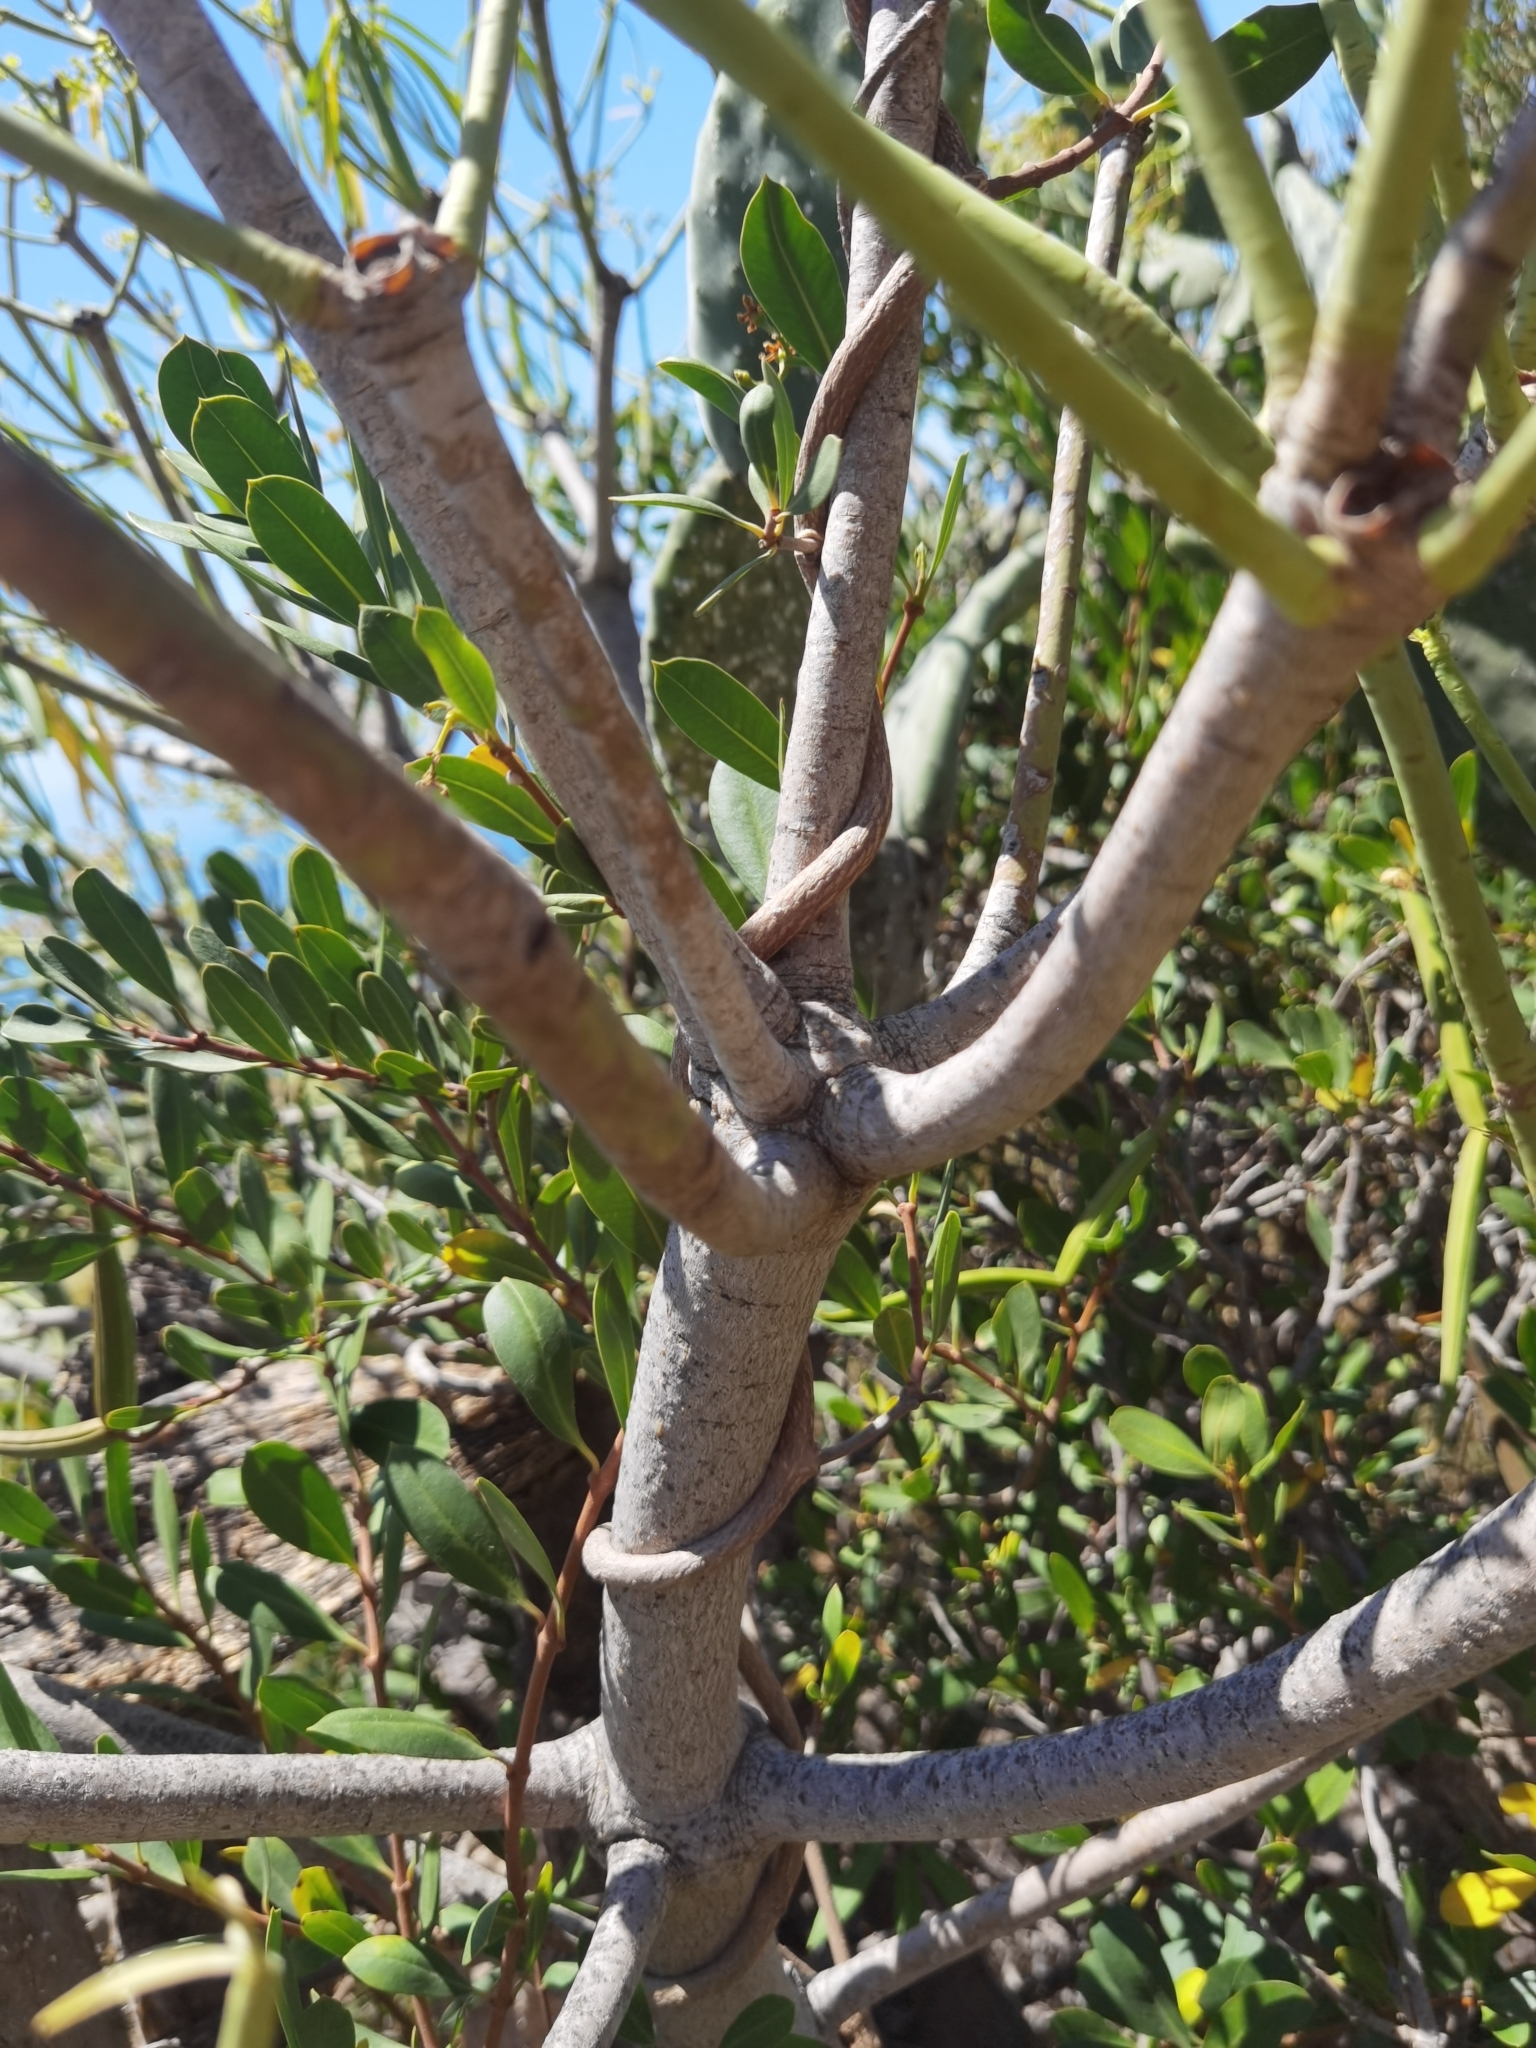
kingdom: Plantae
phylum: Tracheophyta
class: Magnoliopsida
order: Malpighiales
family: Euphorbiaceae
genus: Euphorbia
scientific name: Euphorbia lamarckii
